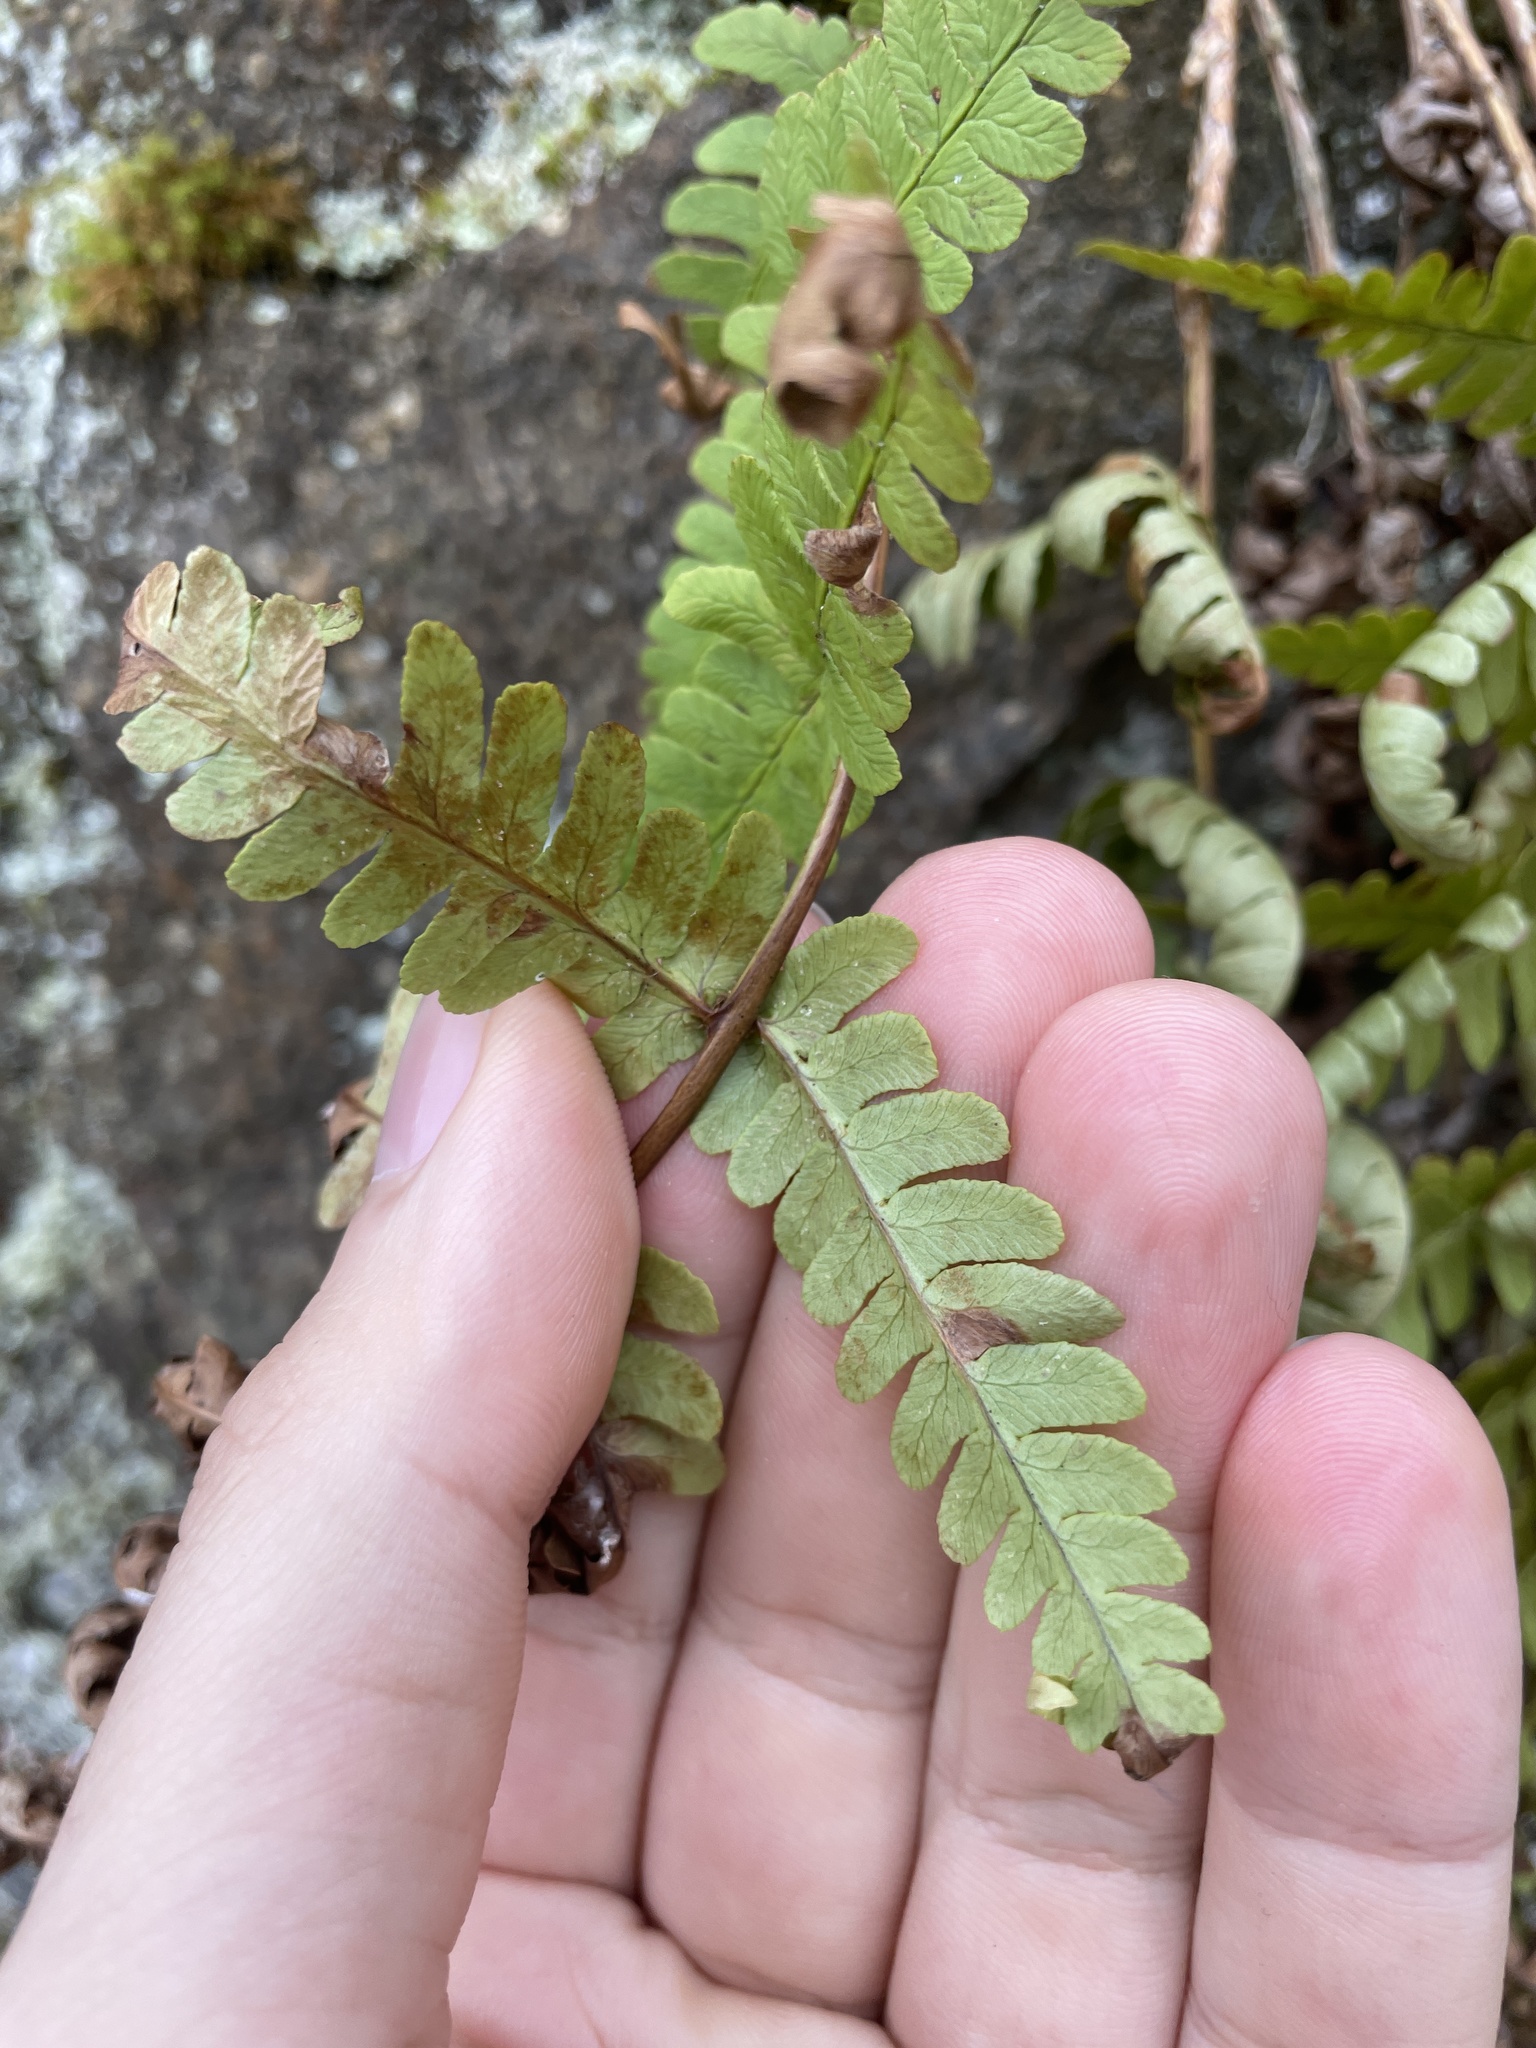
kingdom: Plantae
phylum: Tracheophyta
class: Polypodiopsida
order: Polypodiales
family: Dryopteridaceae
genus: Dryopteris
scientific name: Dryopteris marginalis
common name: Marginal wood fern
